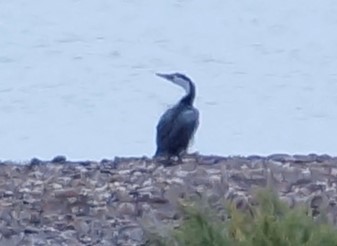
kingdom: Animalia
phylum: Chordata
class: Aves
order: Suliformes
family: Phalacrocoracidae
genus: Phalacrocorax
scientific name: Phalacrocorax varius
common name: Pied cormorant
